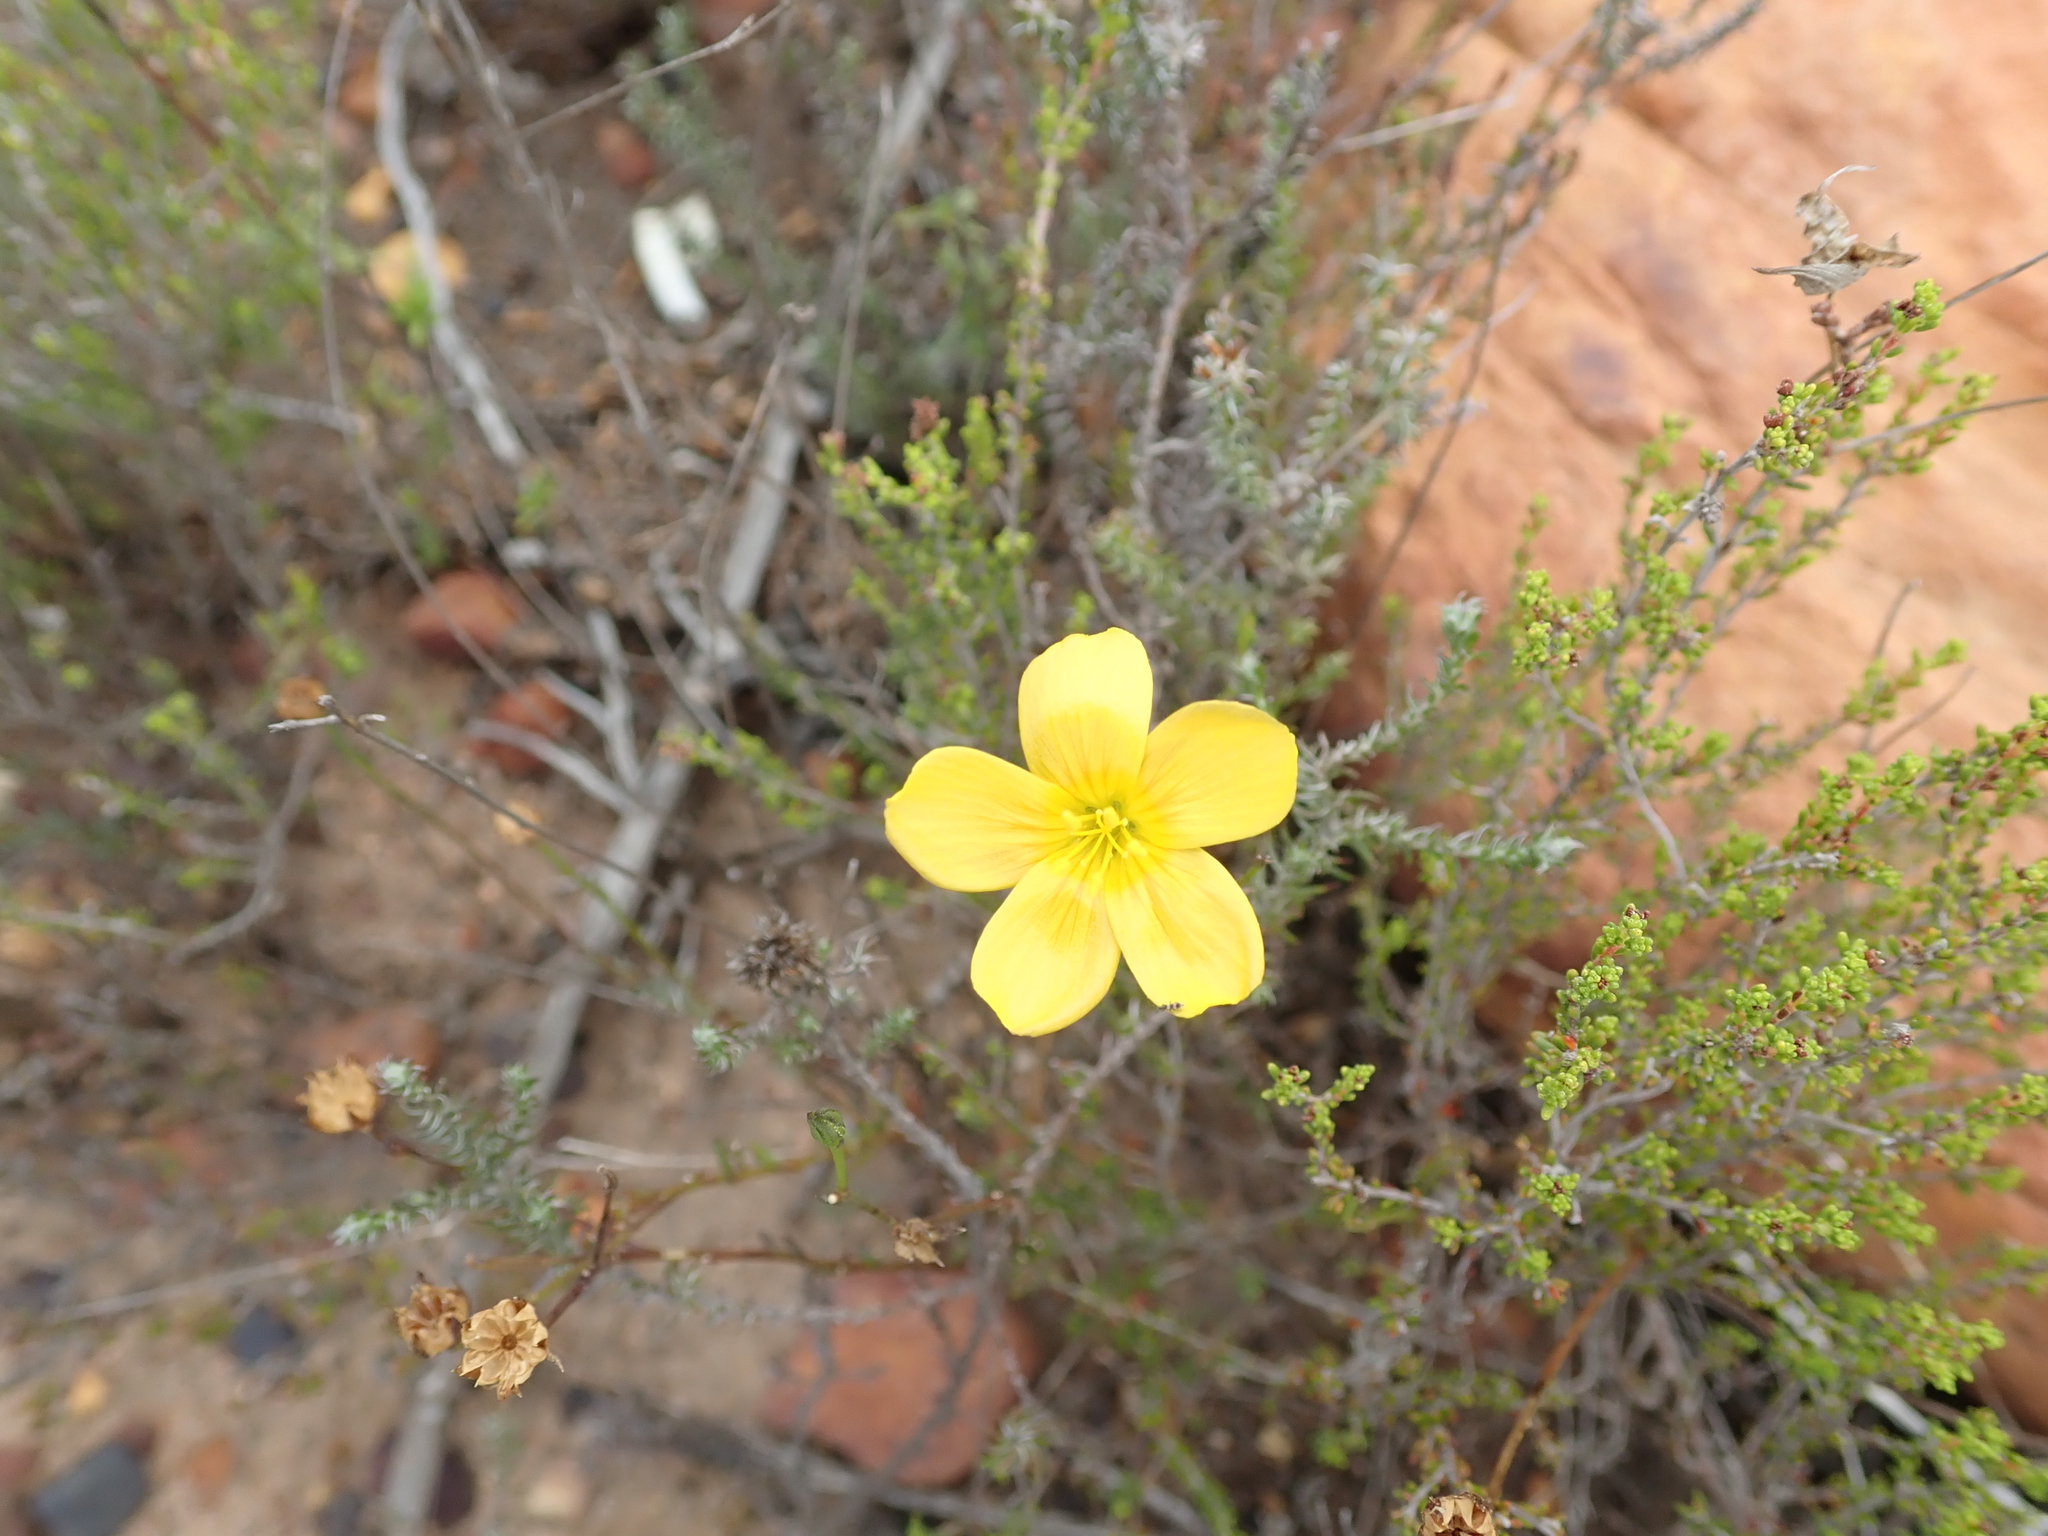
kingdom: Plantae
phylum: Tracheophyta
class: Magnoliopsida
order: Malpighiales
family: Linaceae
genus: Linum
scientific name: Linum africanum
